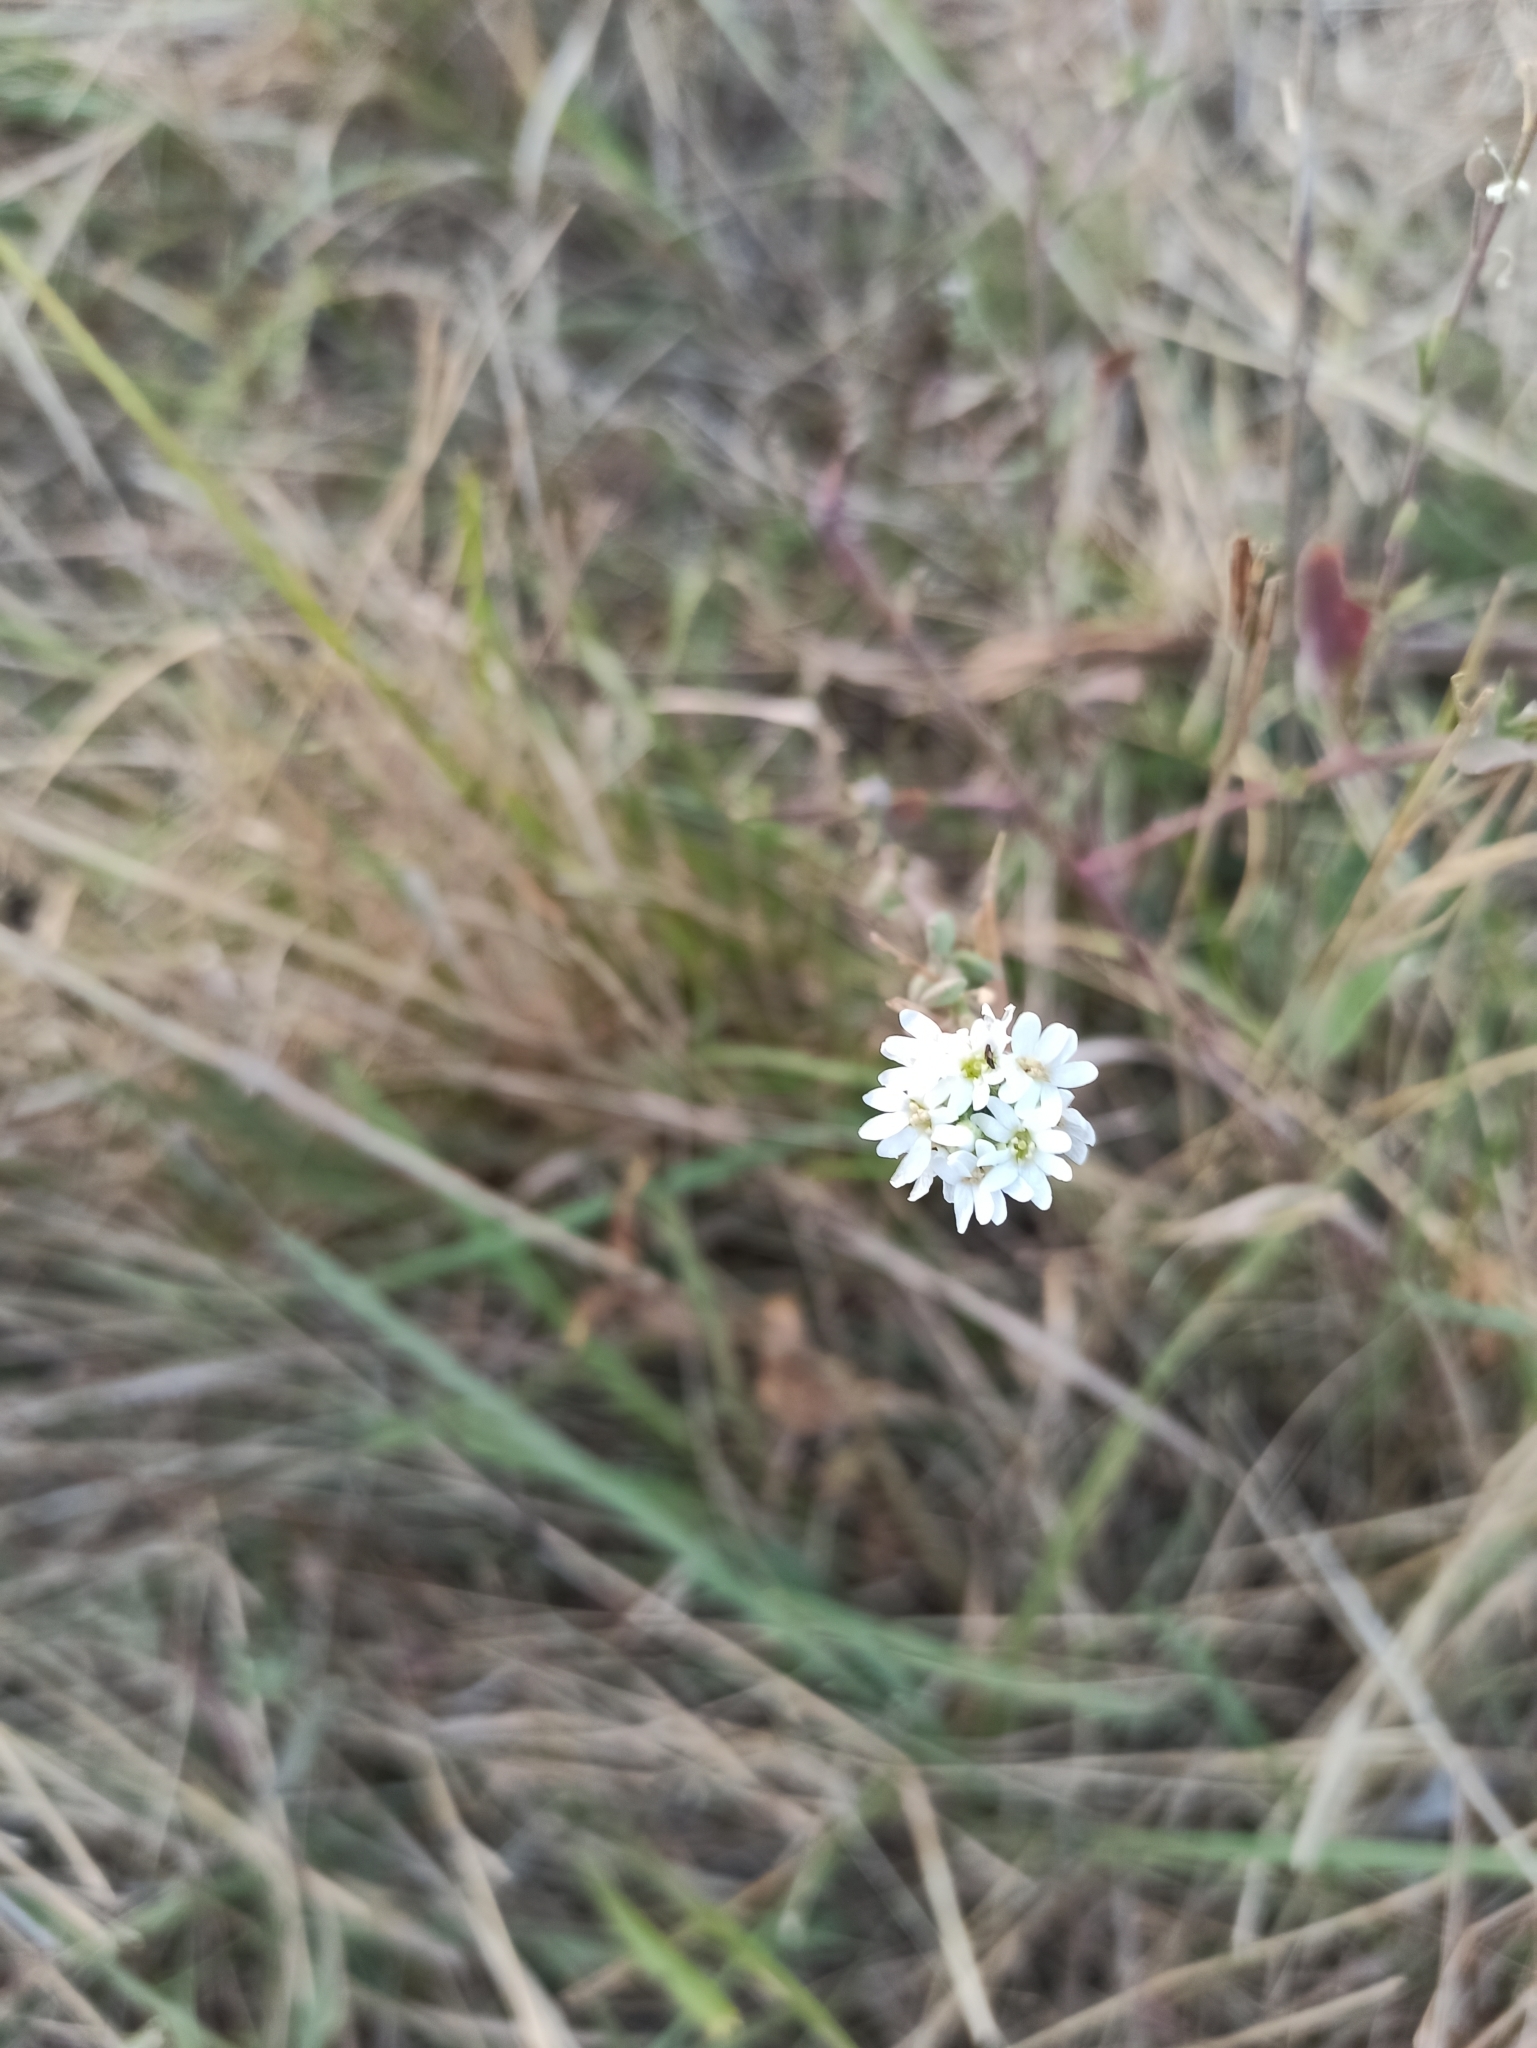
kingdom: Plantae
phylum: Tracheophyta
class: Magnoliopsida
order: Brassicales
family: Brassicaceae
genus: Berteroa
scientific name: Berteroa incana
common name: Hoary alison
